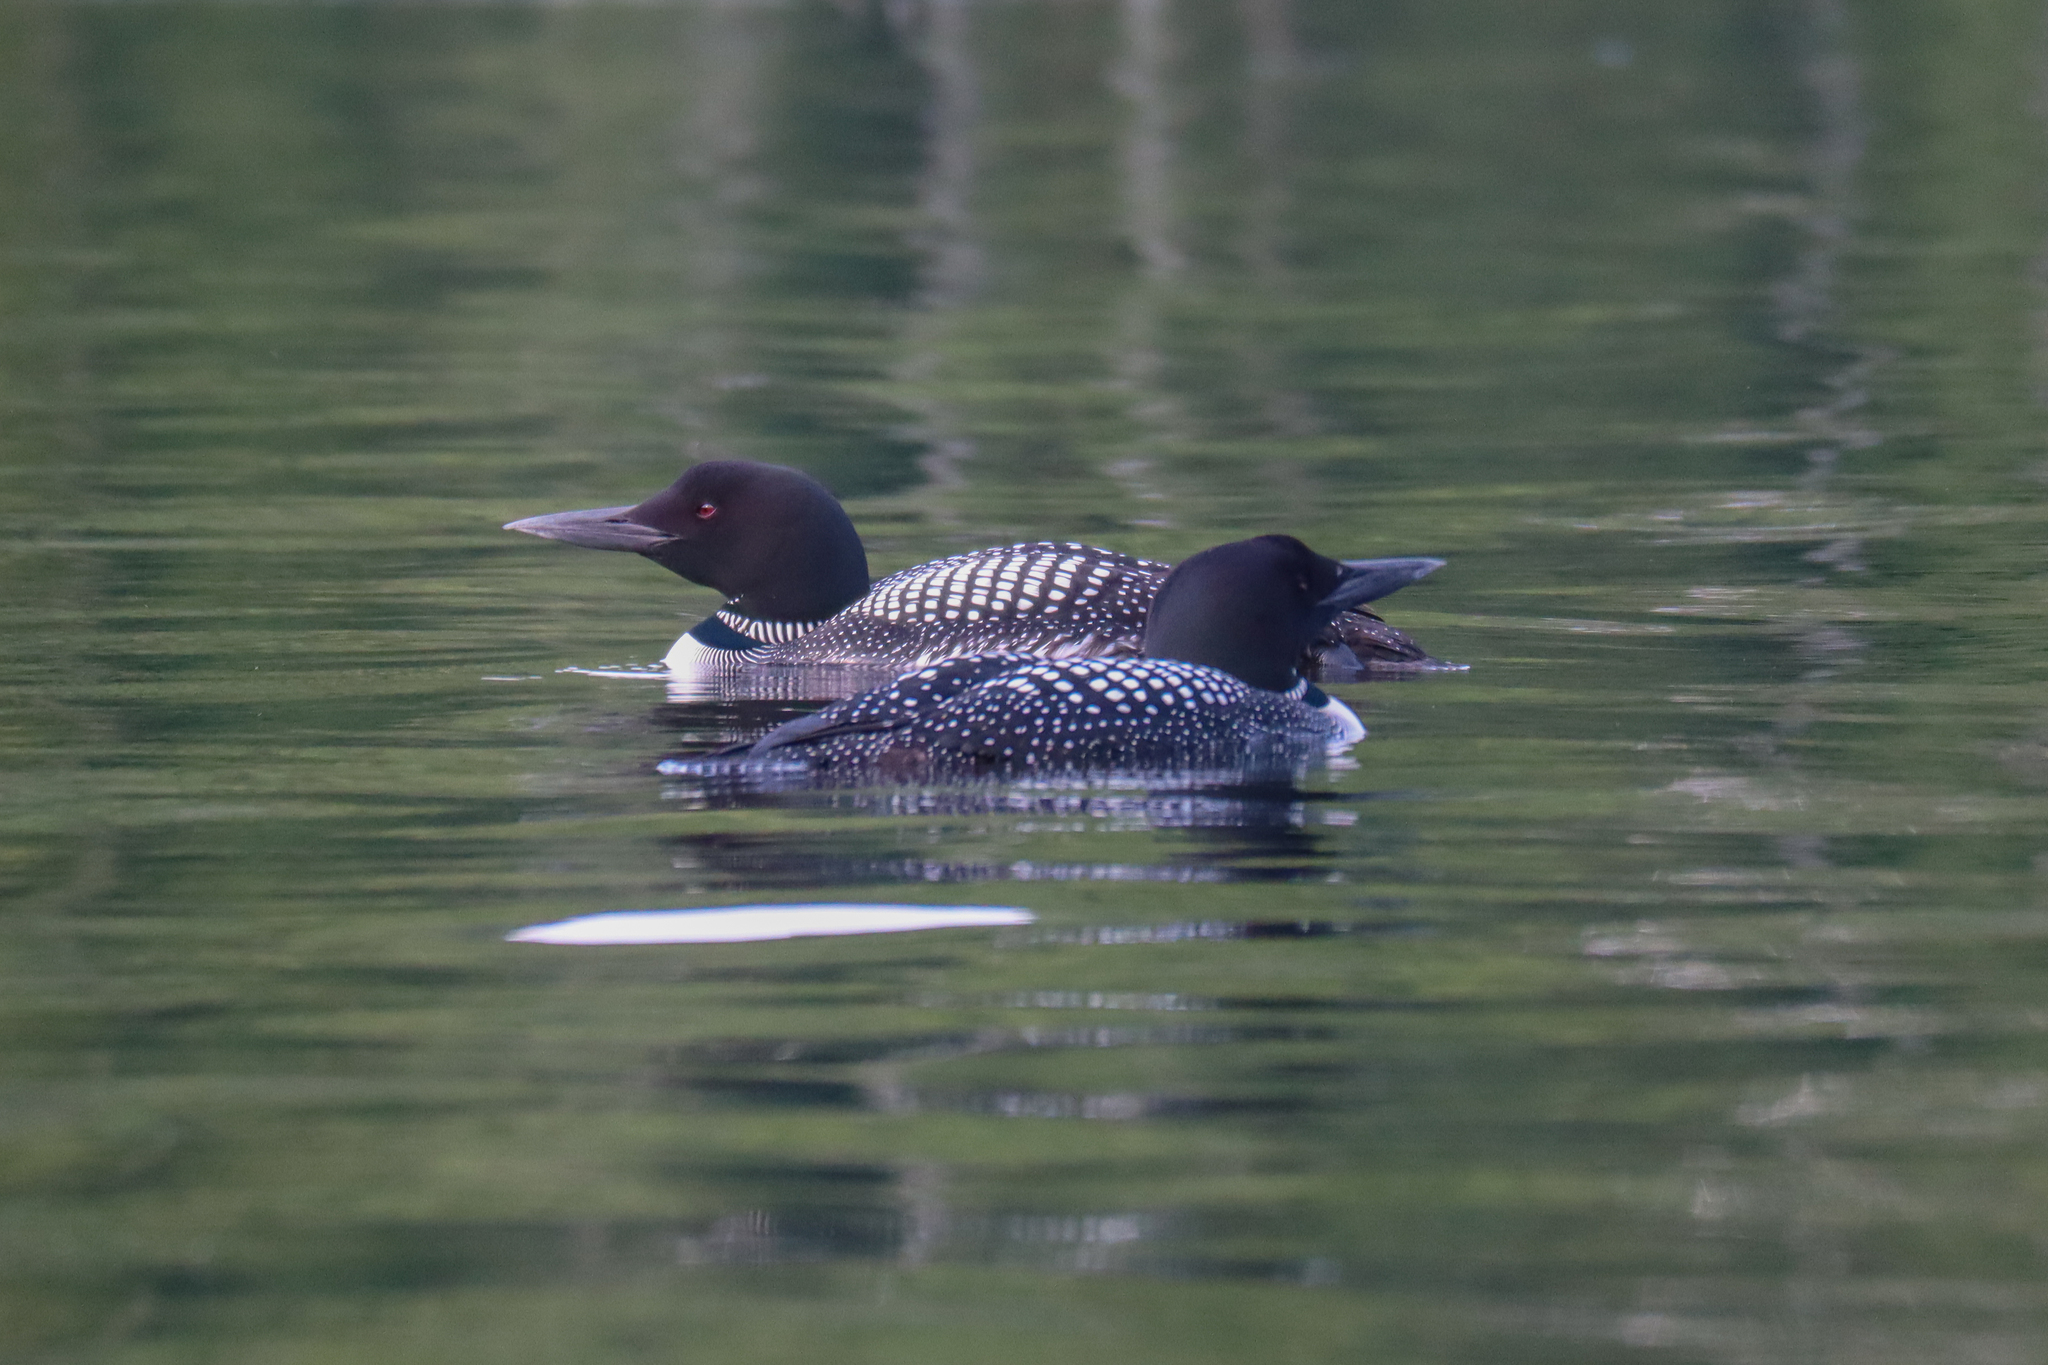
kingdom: Animalia
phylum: Chordata
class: Aves
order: Gaviiformes
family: Gaviidae
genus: Gavia
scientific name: Gavia immer
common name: Common loon
